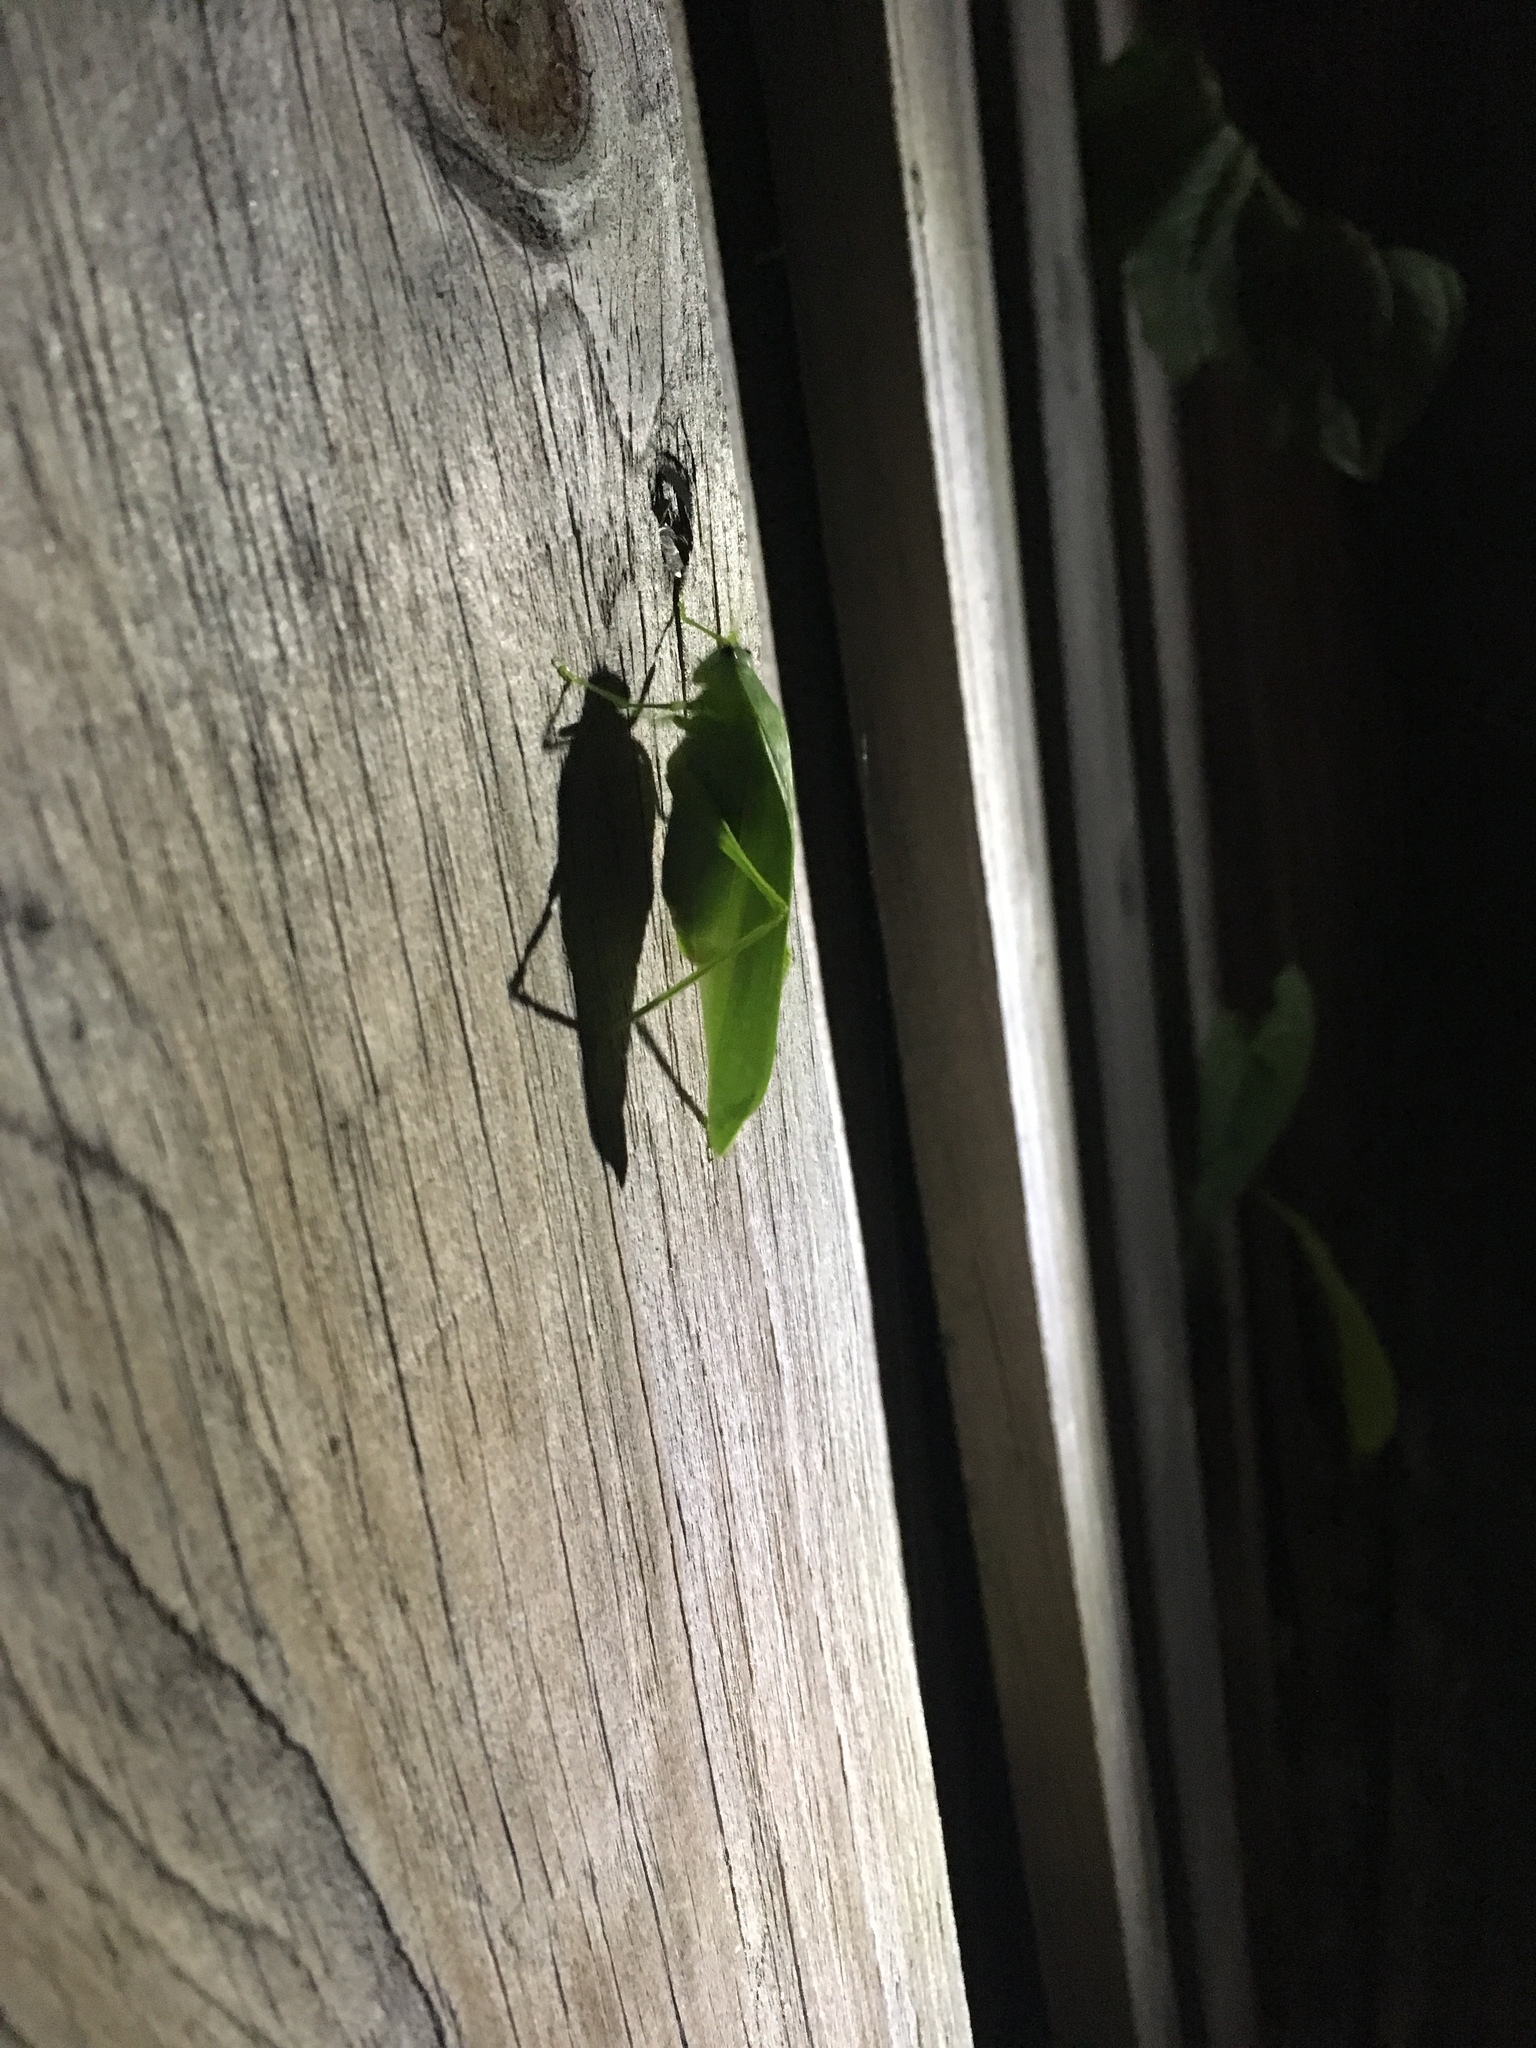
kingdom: Animalia
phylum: Arthropoda
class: Insecta
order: Orthoptera
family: Tettigoniidae
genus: Turpilia
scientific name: Turpilia rostrata
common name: Narrow-beaked katydid
